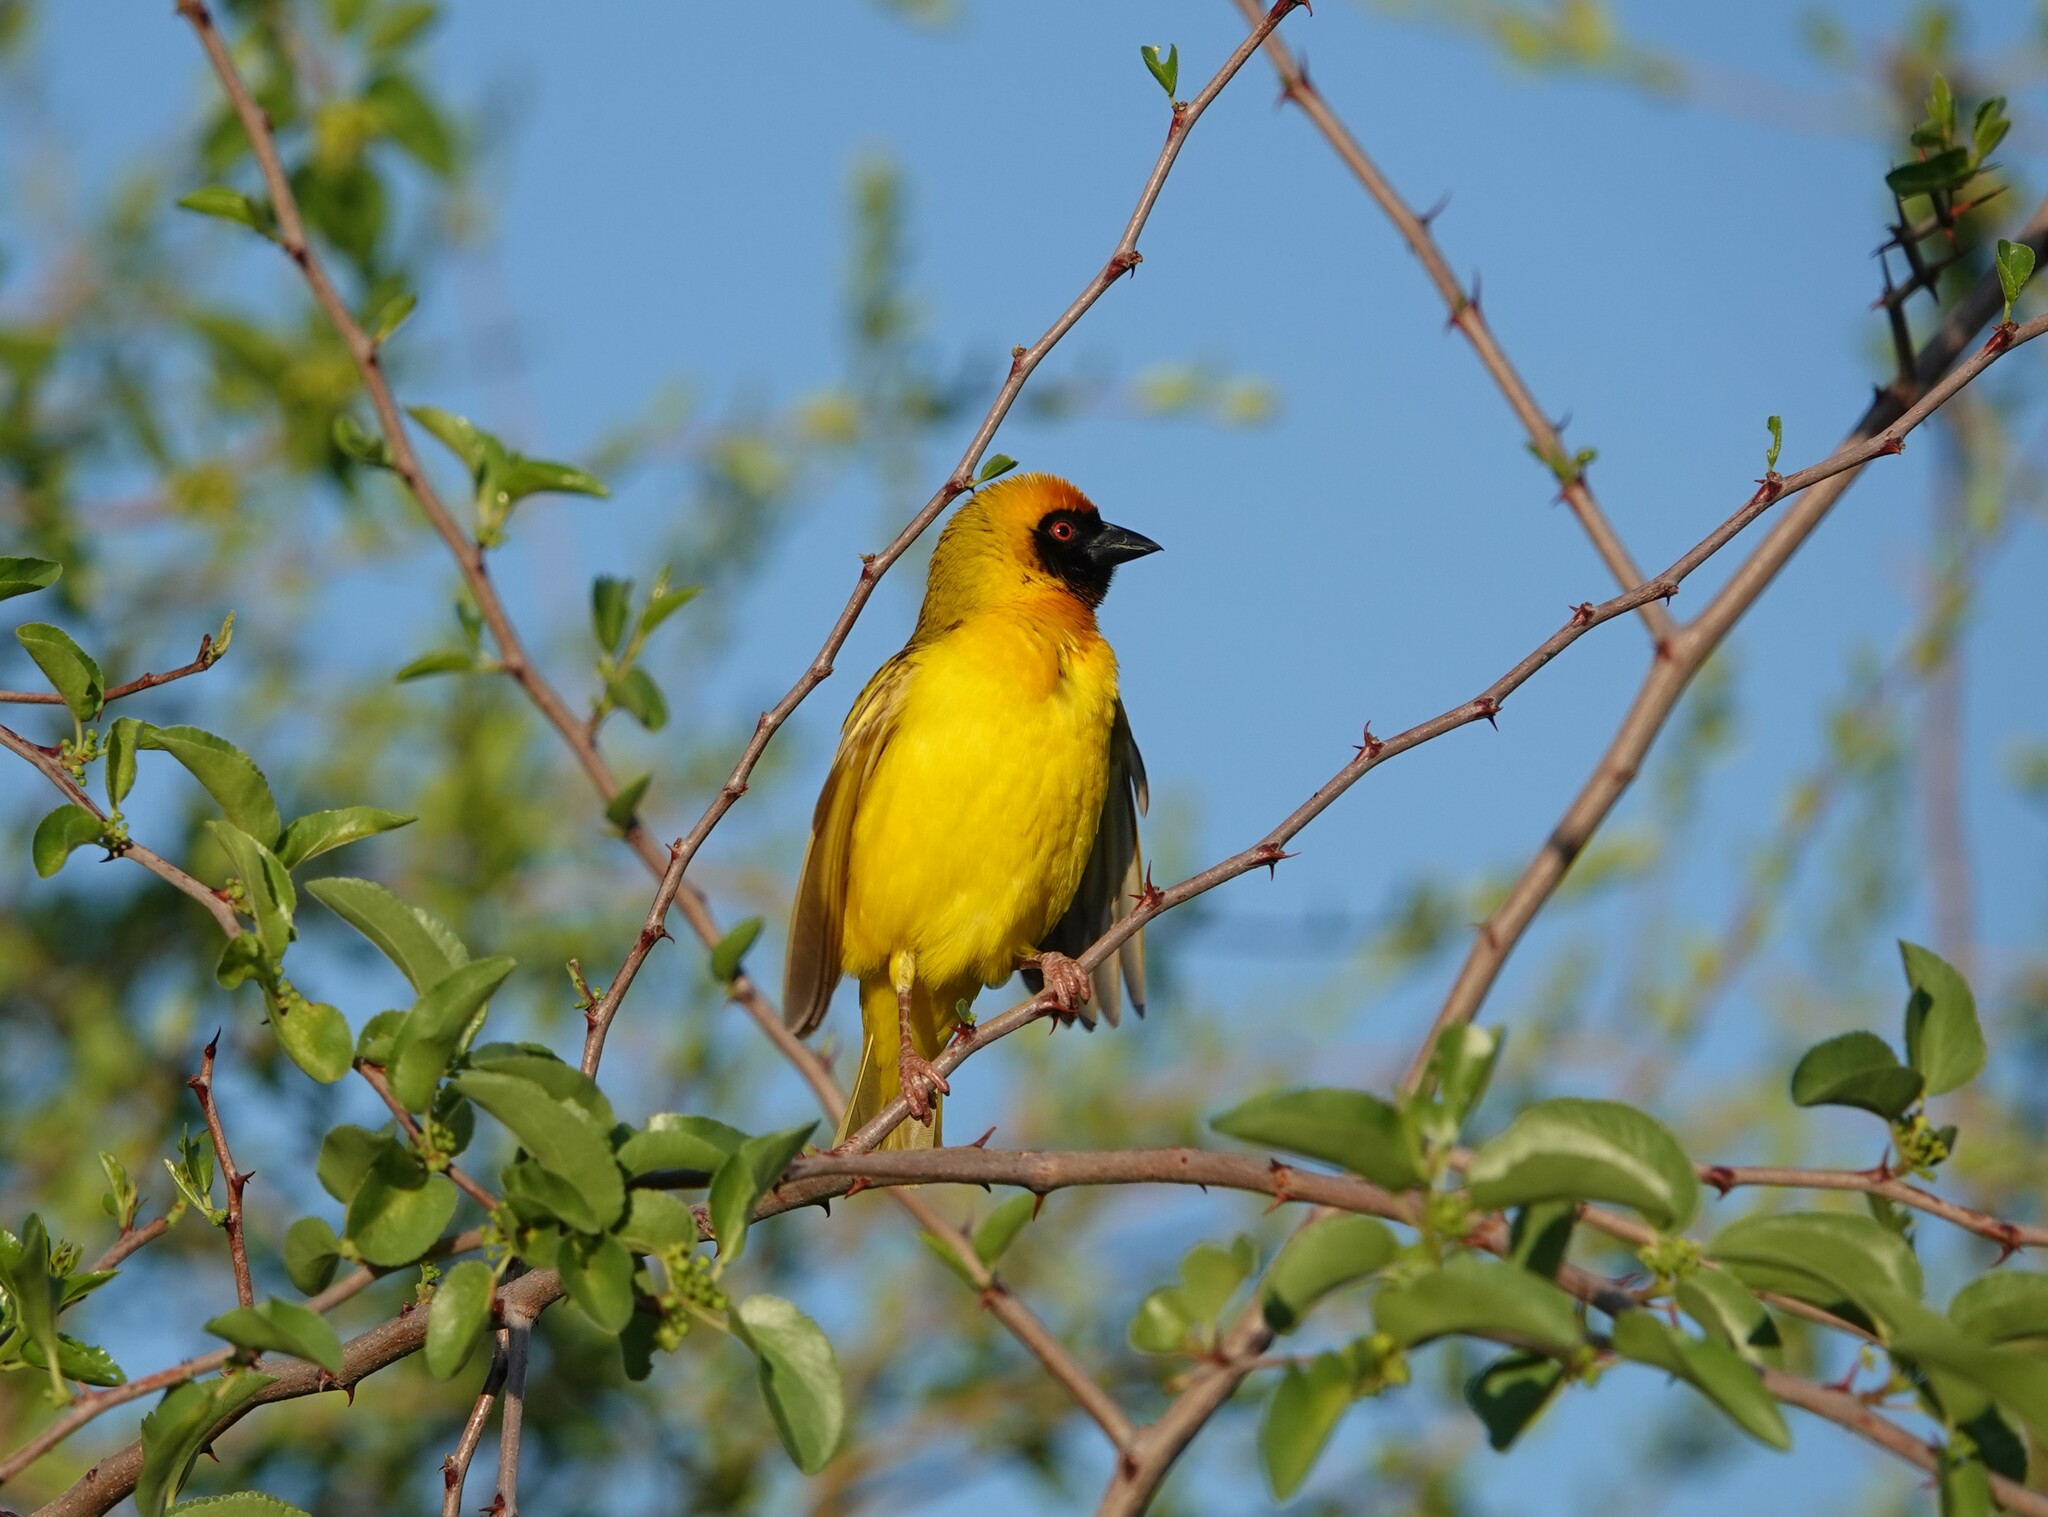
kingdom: Animalia
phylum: Chordata
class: Aves
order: Passeriformes
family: Ploceidae
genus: Ploceus
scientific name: Ploceus velatus
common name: Southern masked weaver
